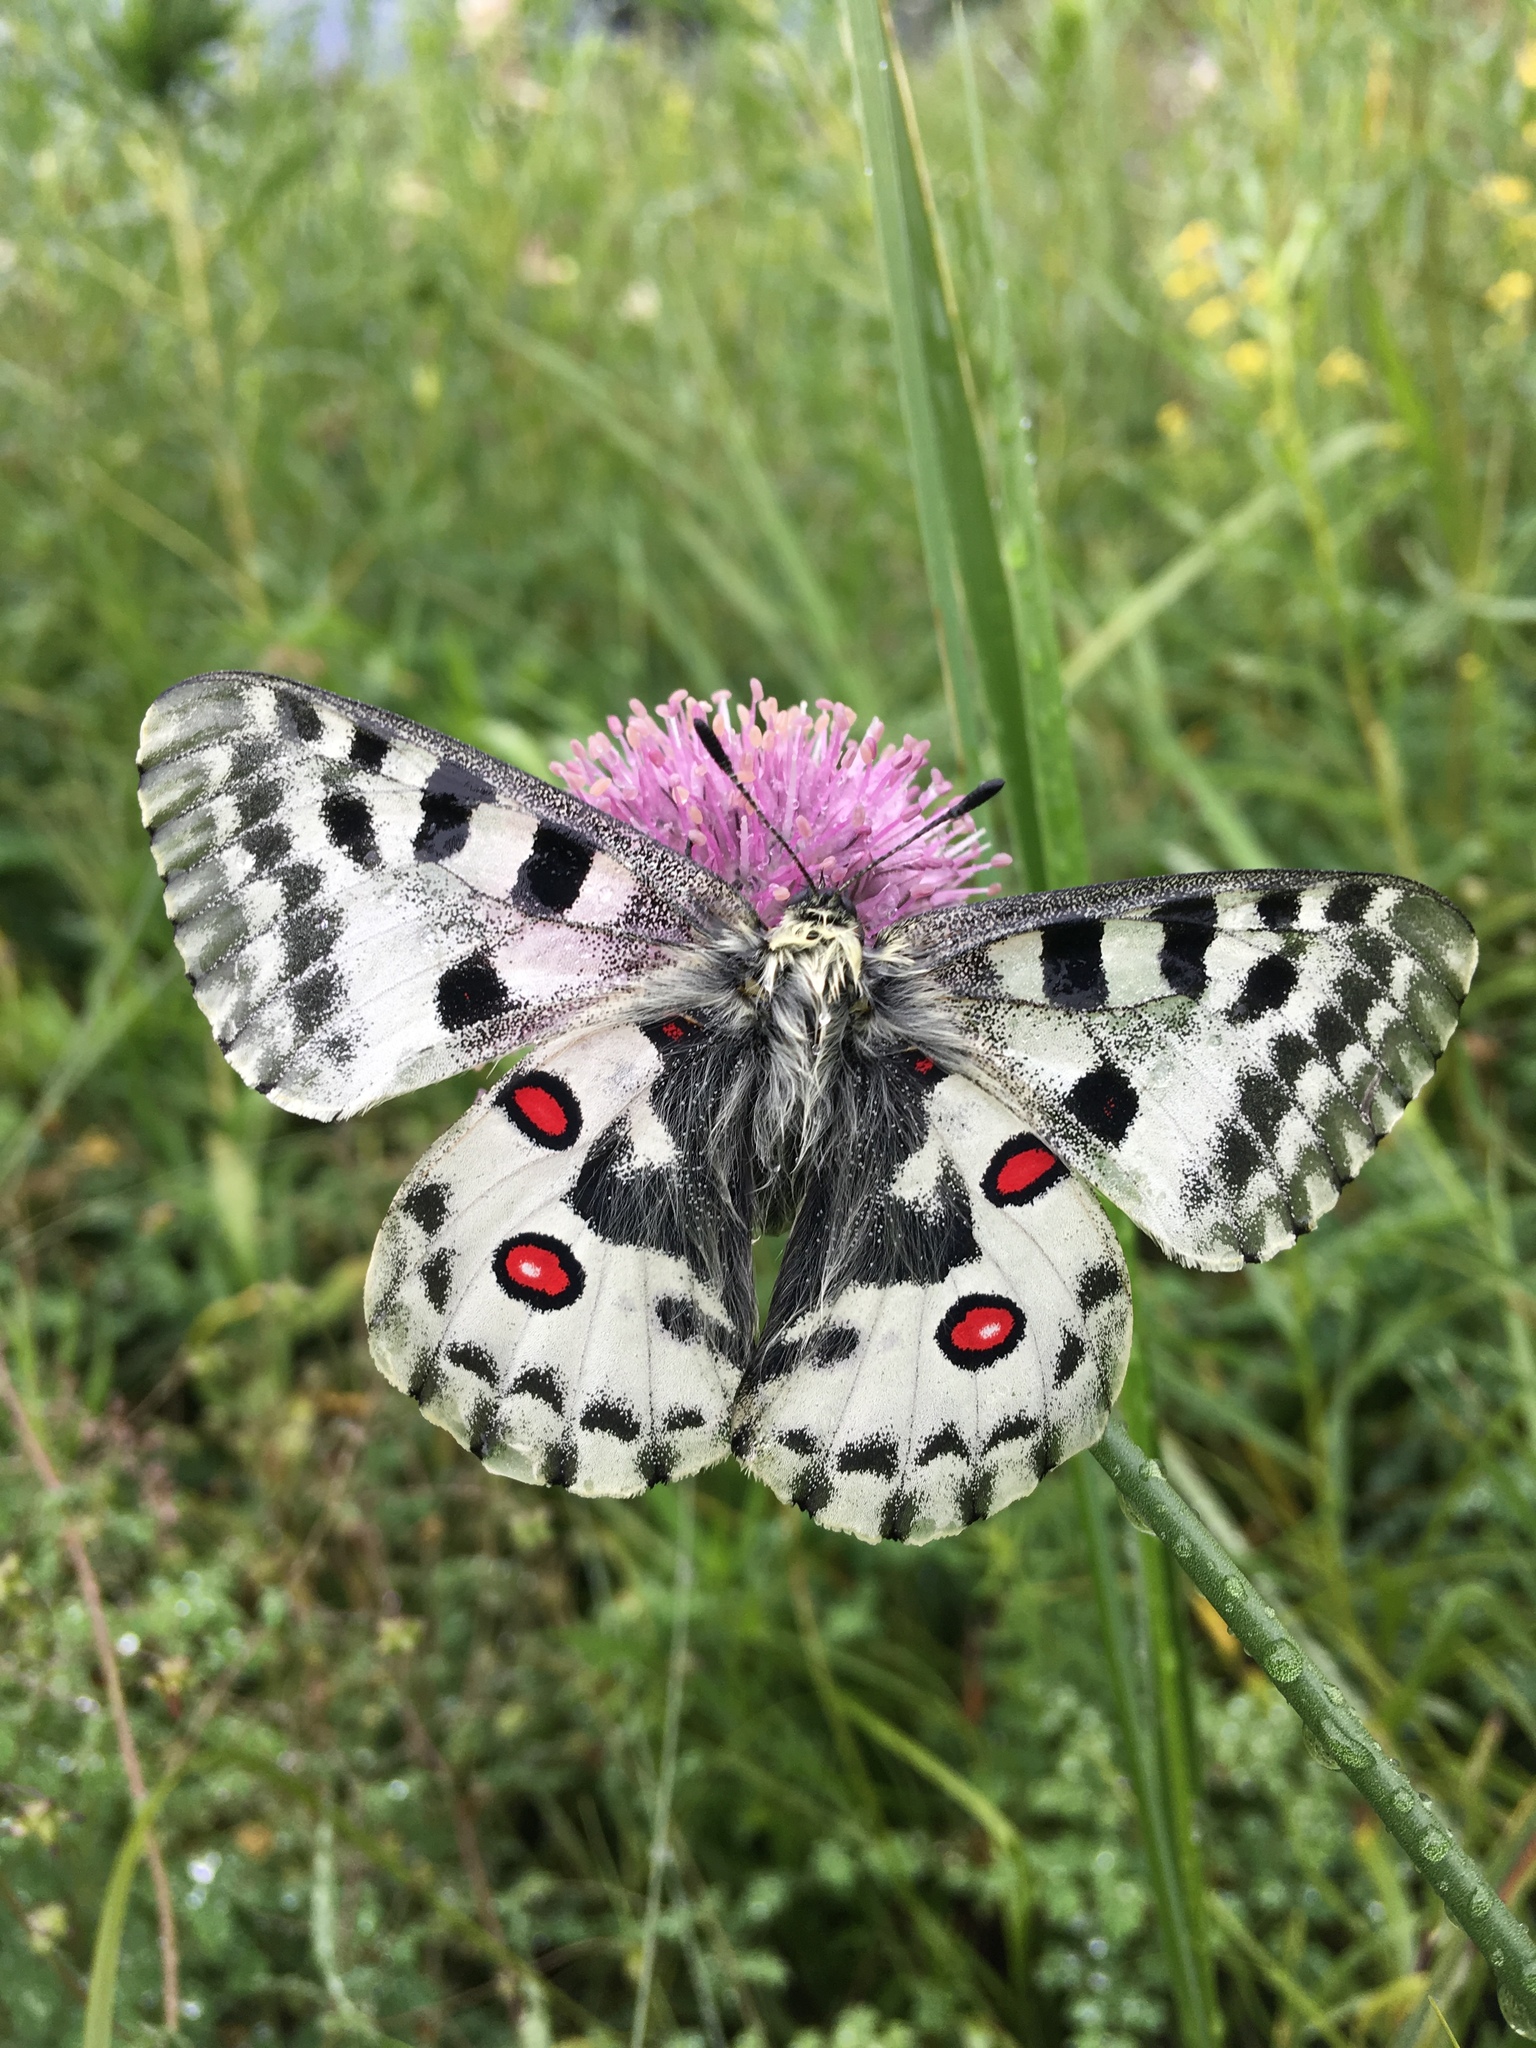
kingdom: Animalia
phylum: Arthropoda
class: Insecta
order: Lepidoptera
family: Papilionidae
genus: Parnassius
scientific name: Parnassius nomion
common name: Nomion apollo
